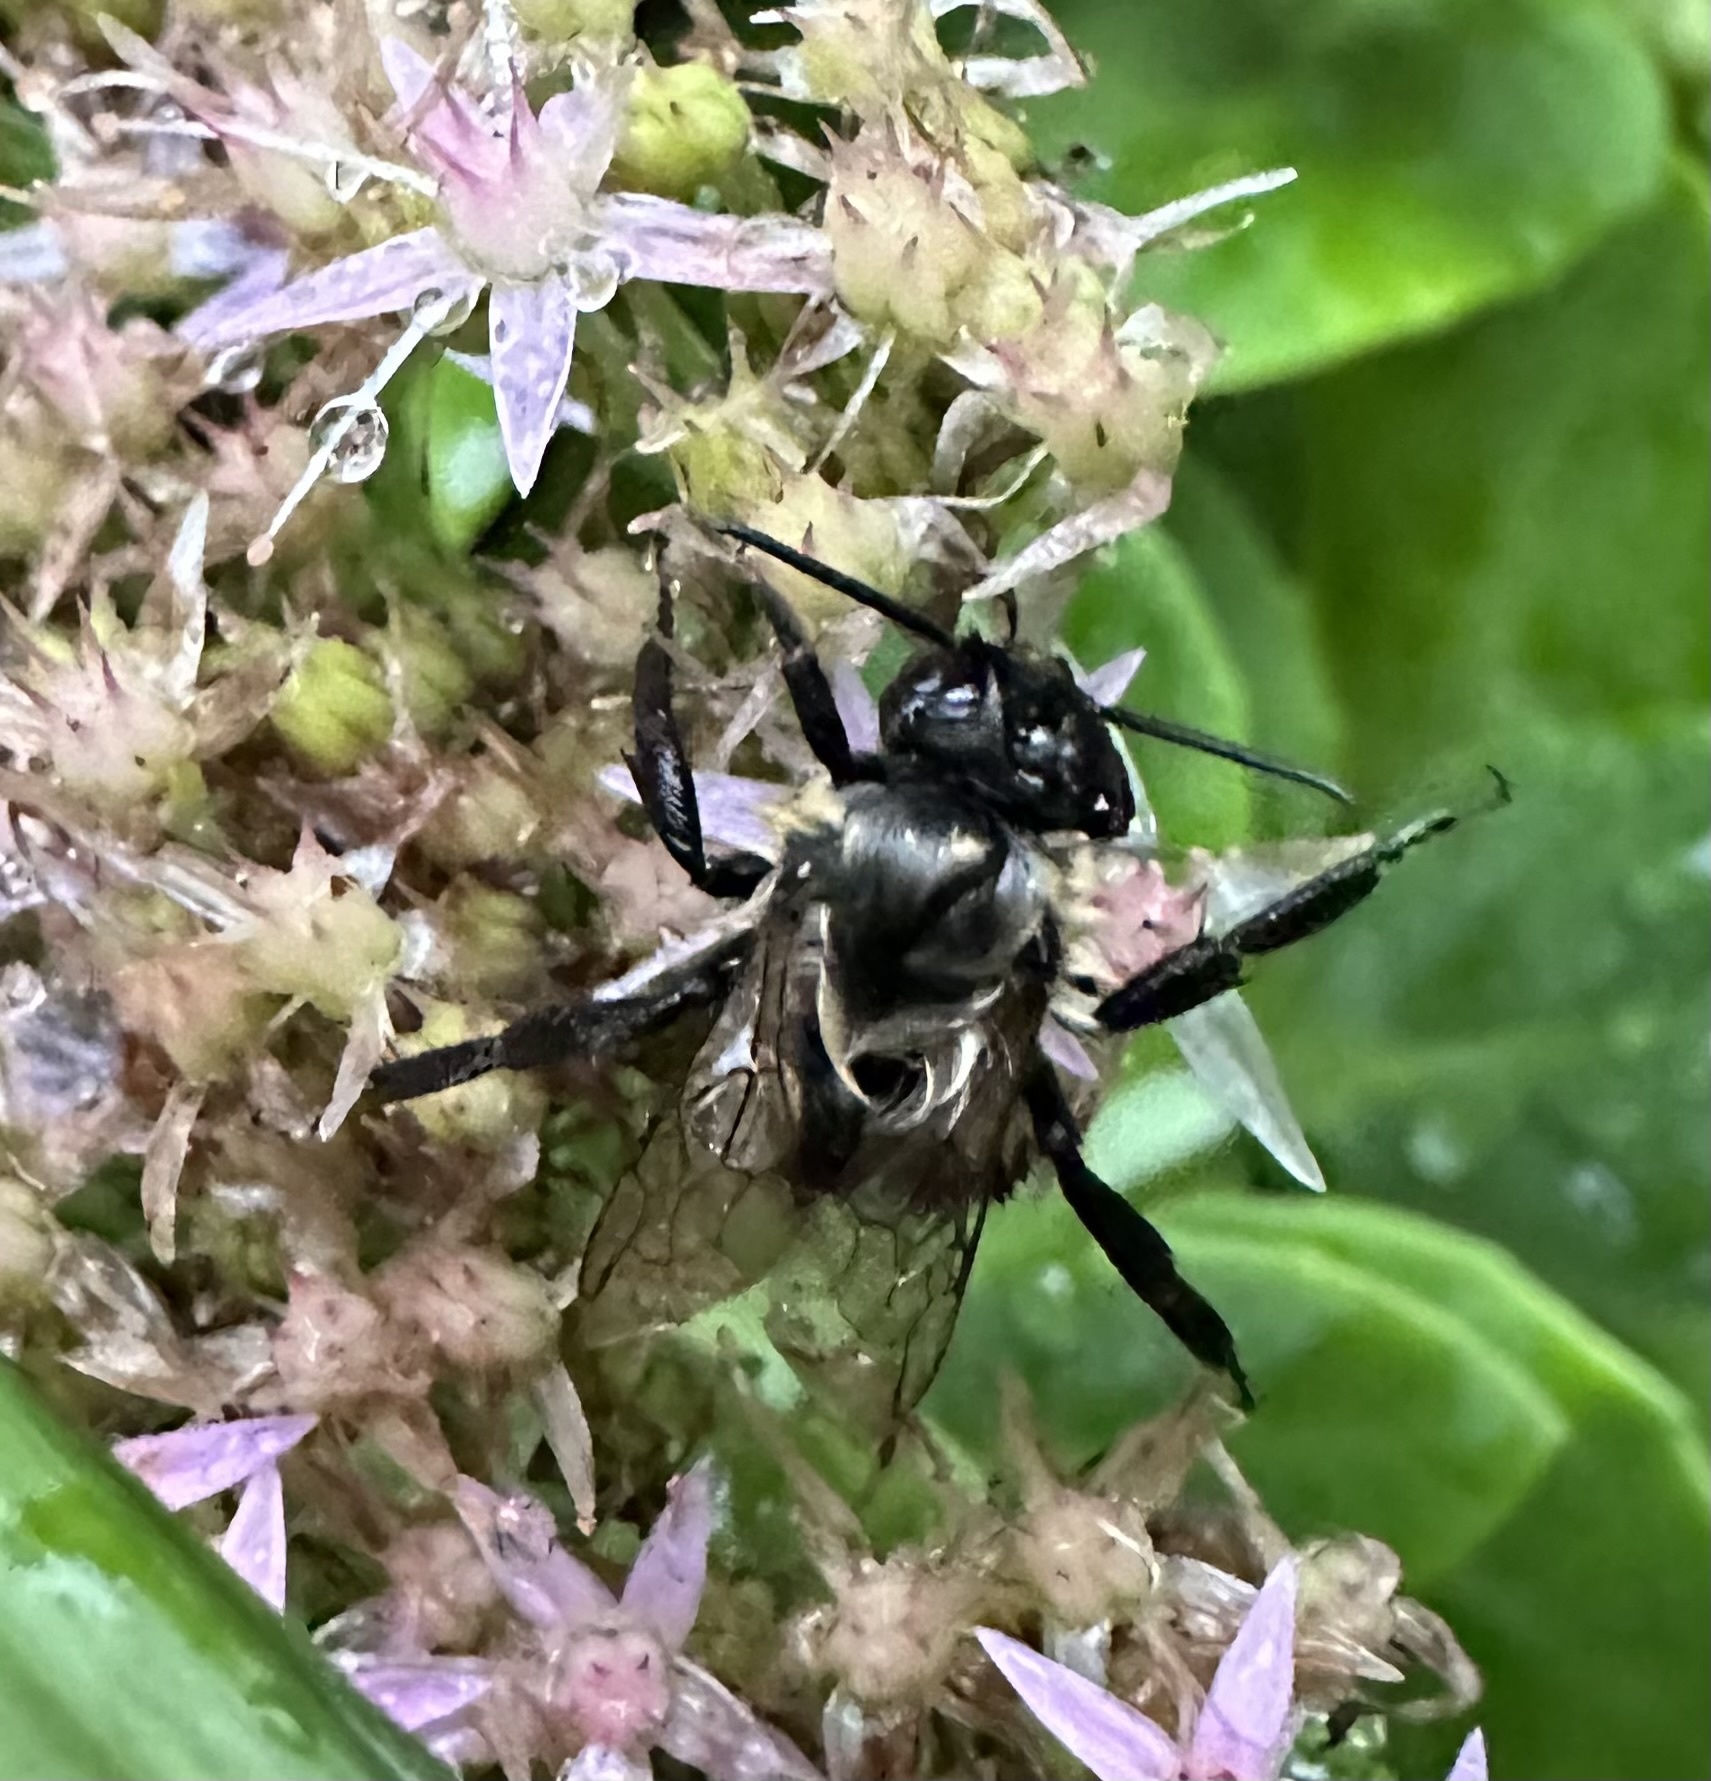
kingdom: Animalia
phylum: Arthropoda
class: Insecta
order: Hymenoptera
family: Apidae
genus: Bombus
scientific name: Bombus impatiens
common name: Common eastern bumble bee
